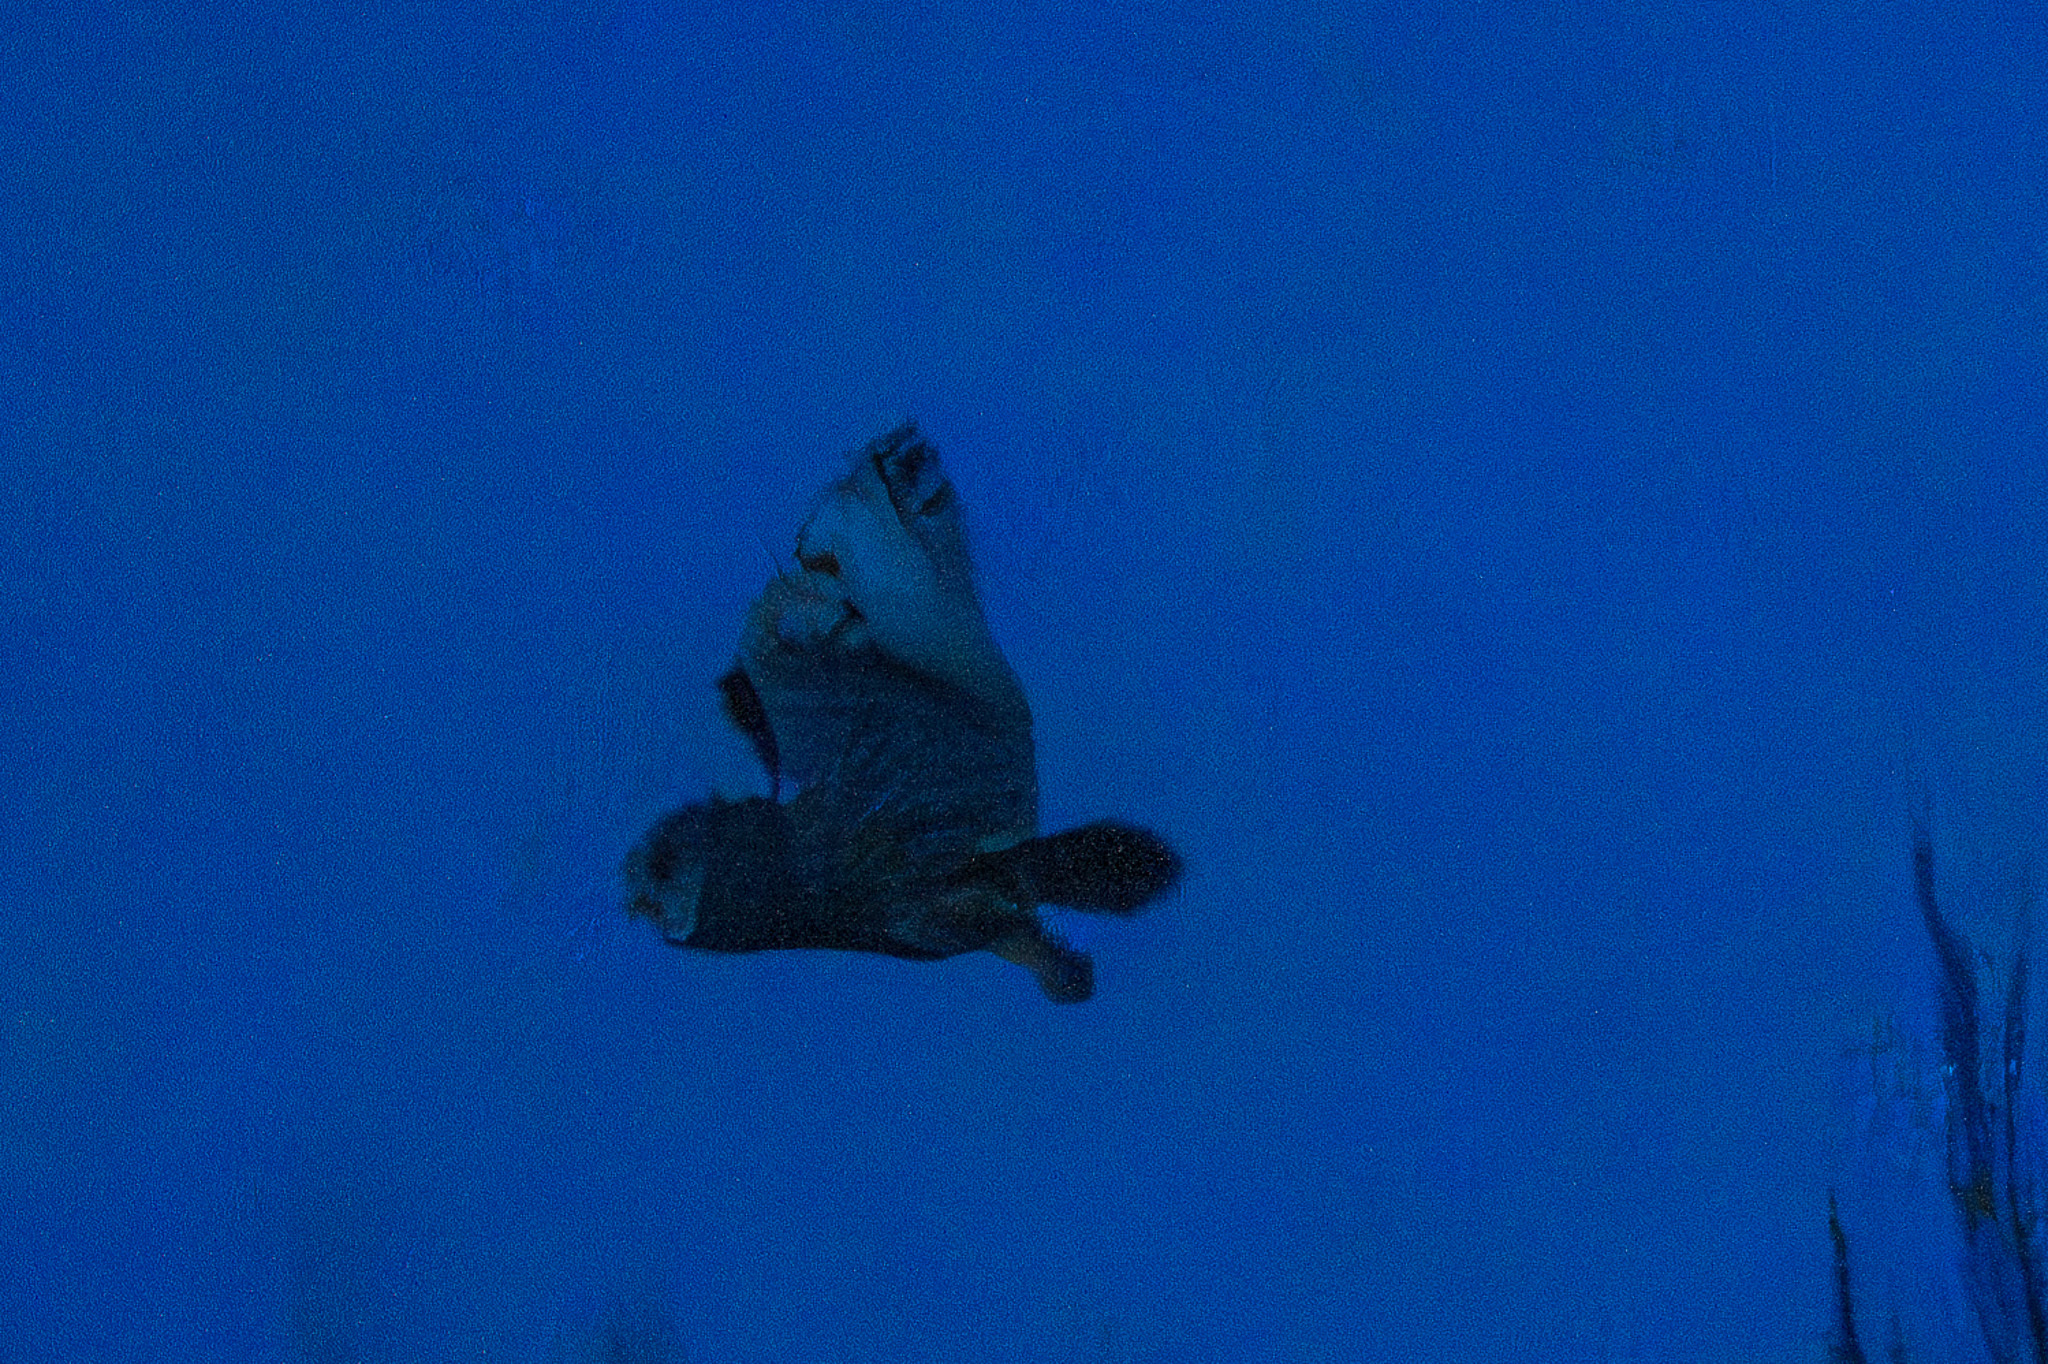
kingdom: Animalia
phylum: Chordata
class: Aves
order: Strigiformes
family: Strigidae
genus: Asio
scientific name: Asio otus
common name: Long-eared owl
